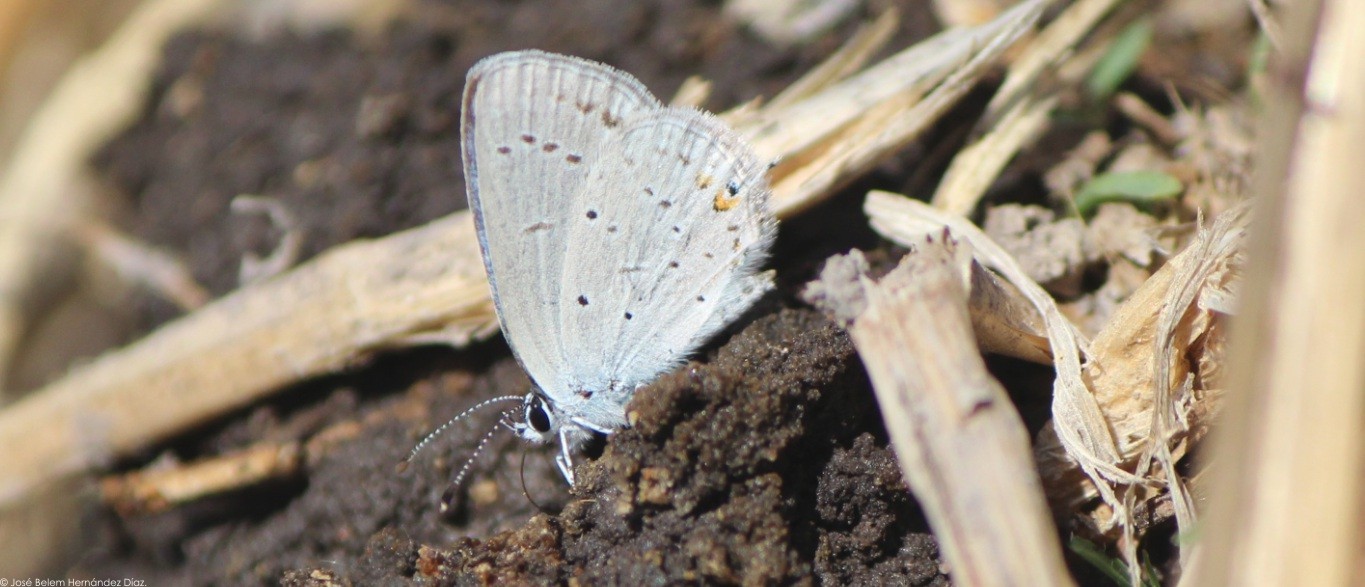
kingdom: Animalia
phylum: Arthropoda
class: Insecta
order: Lepidoptera
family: Lycaenidae
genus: Elkalyce
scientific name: Elkalyce comyntas
